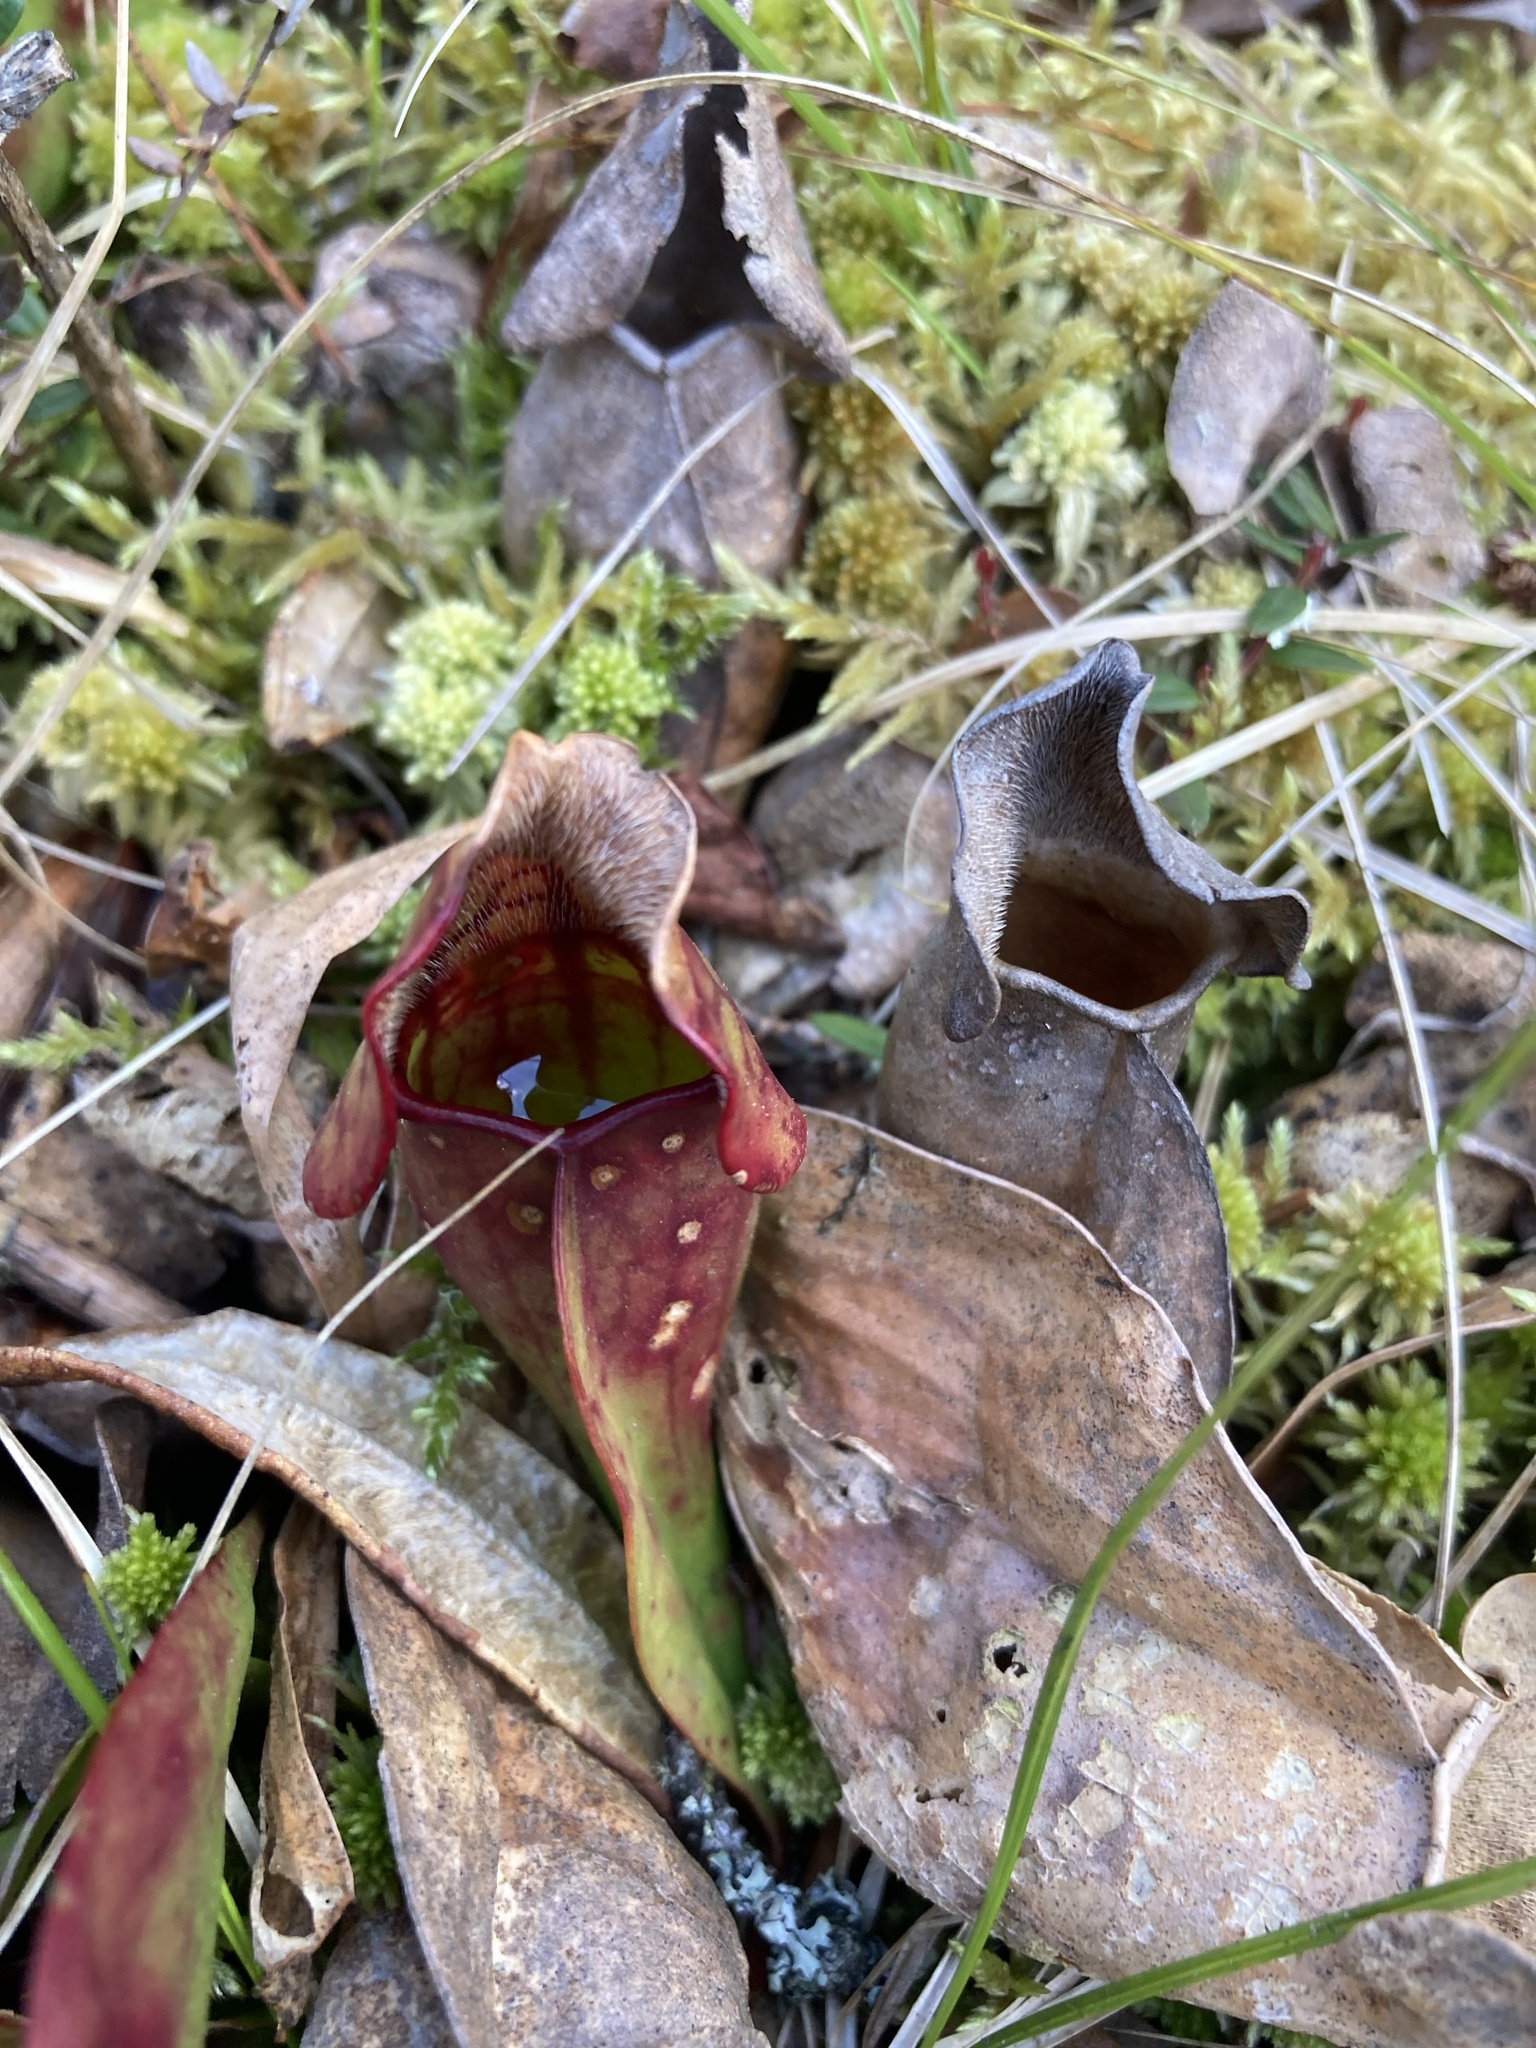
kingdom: Plantae
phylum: Tracheophyta
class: Magnoliopsida
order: Ericales
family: Sarraceniaceae
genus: Sarracenia
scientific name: Sarracenia purpurea
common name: Pitcherplant
